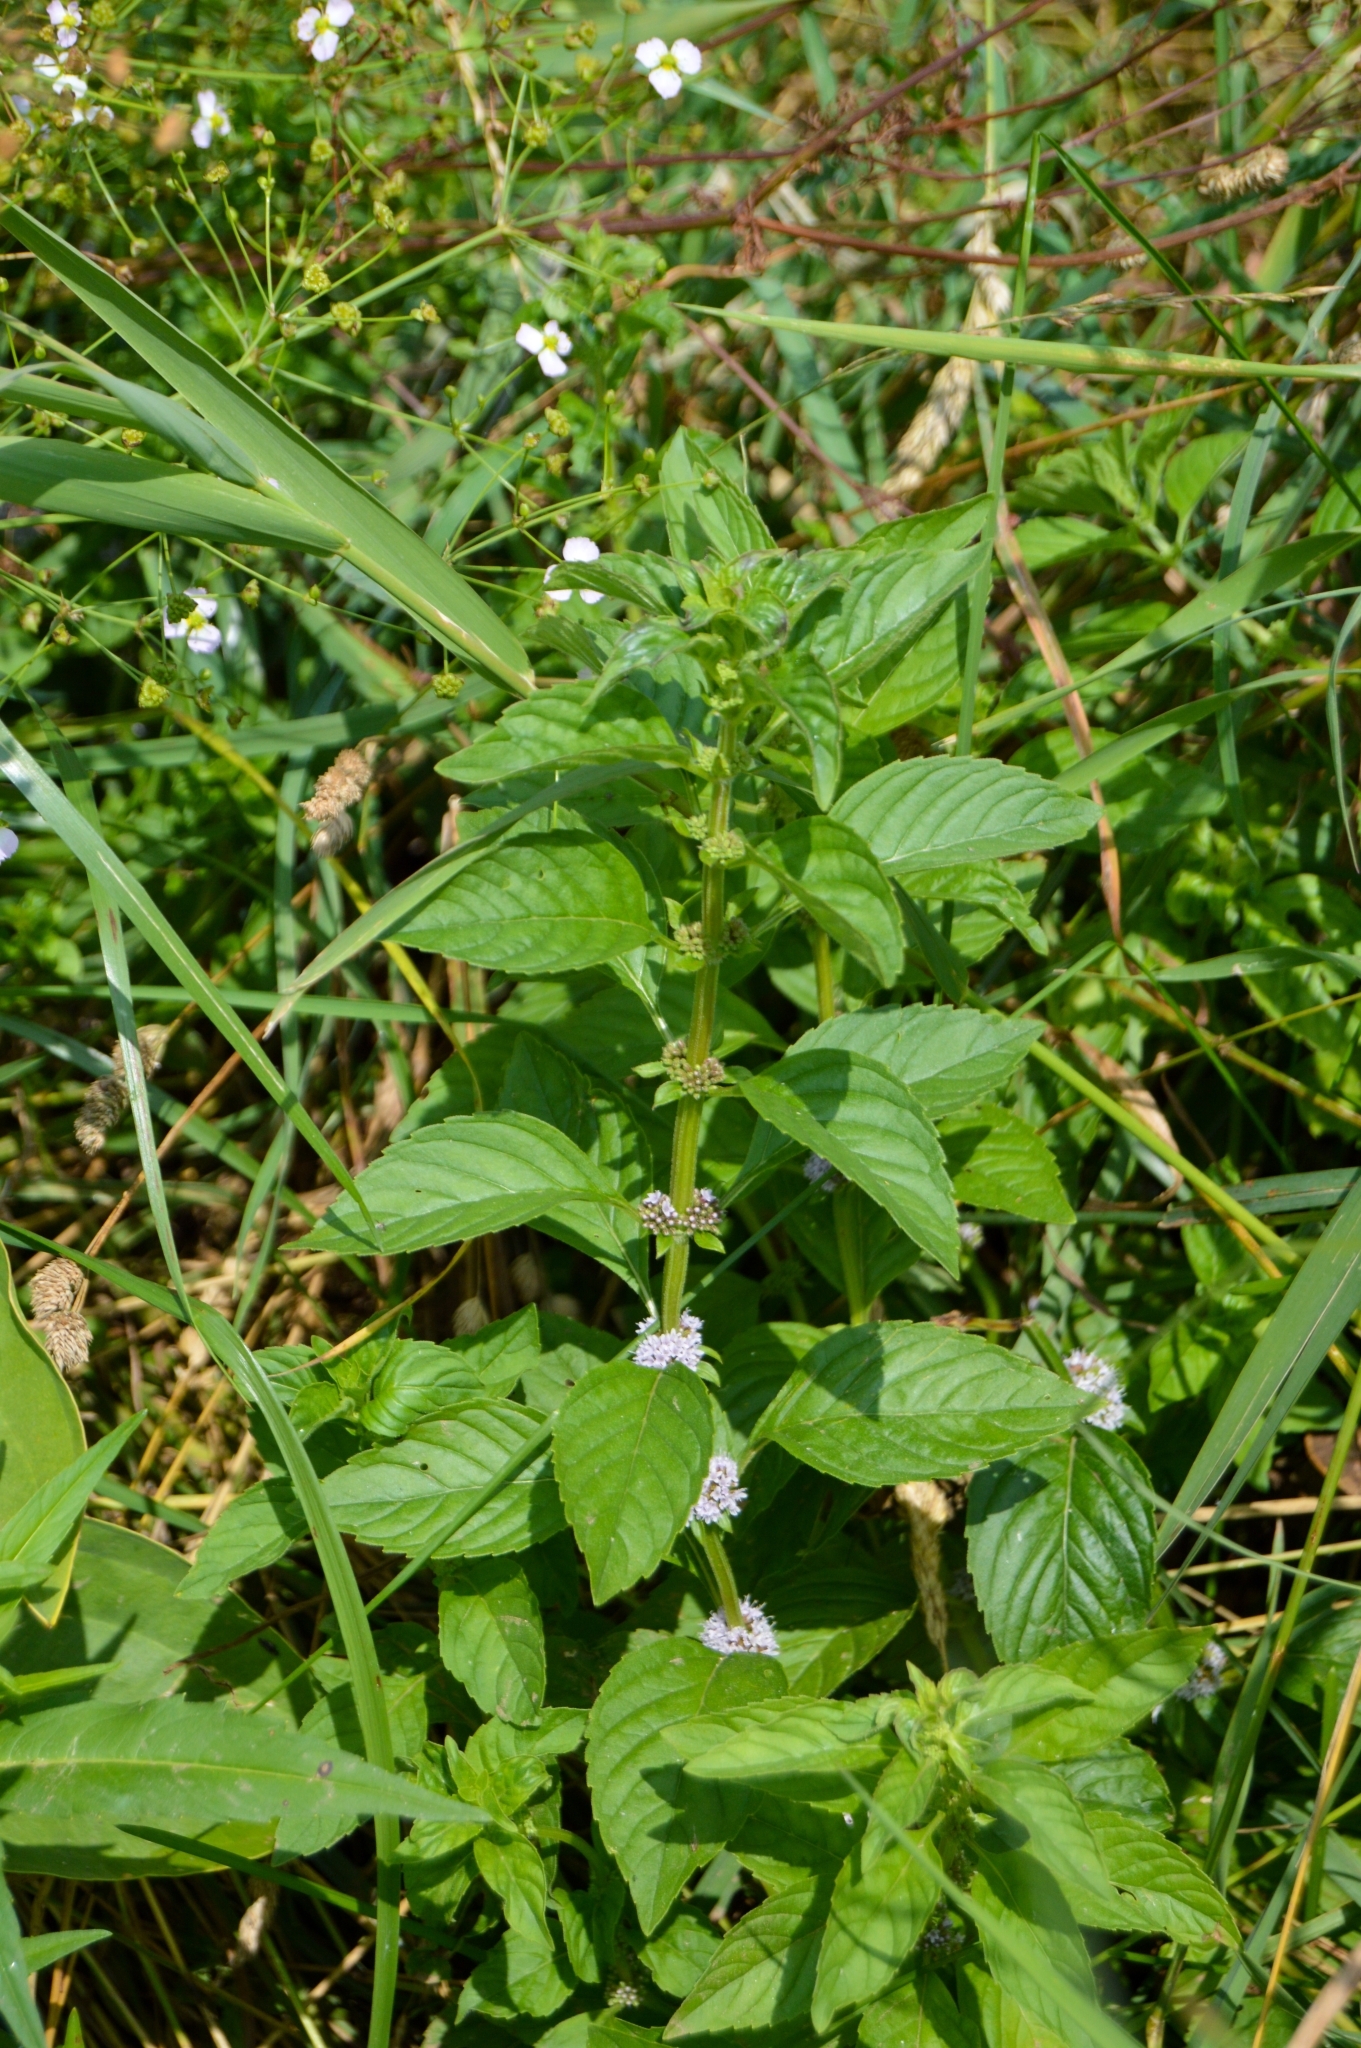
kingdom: Plantae
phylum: Tracheophyta
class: Magnoliopsida
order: Lamiales
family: Lamiaceae
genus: Mentha
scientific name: Mentha arvensis
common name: Corn mint
